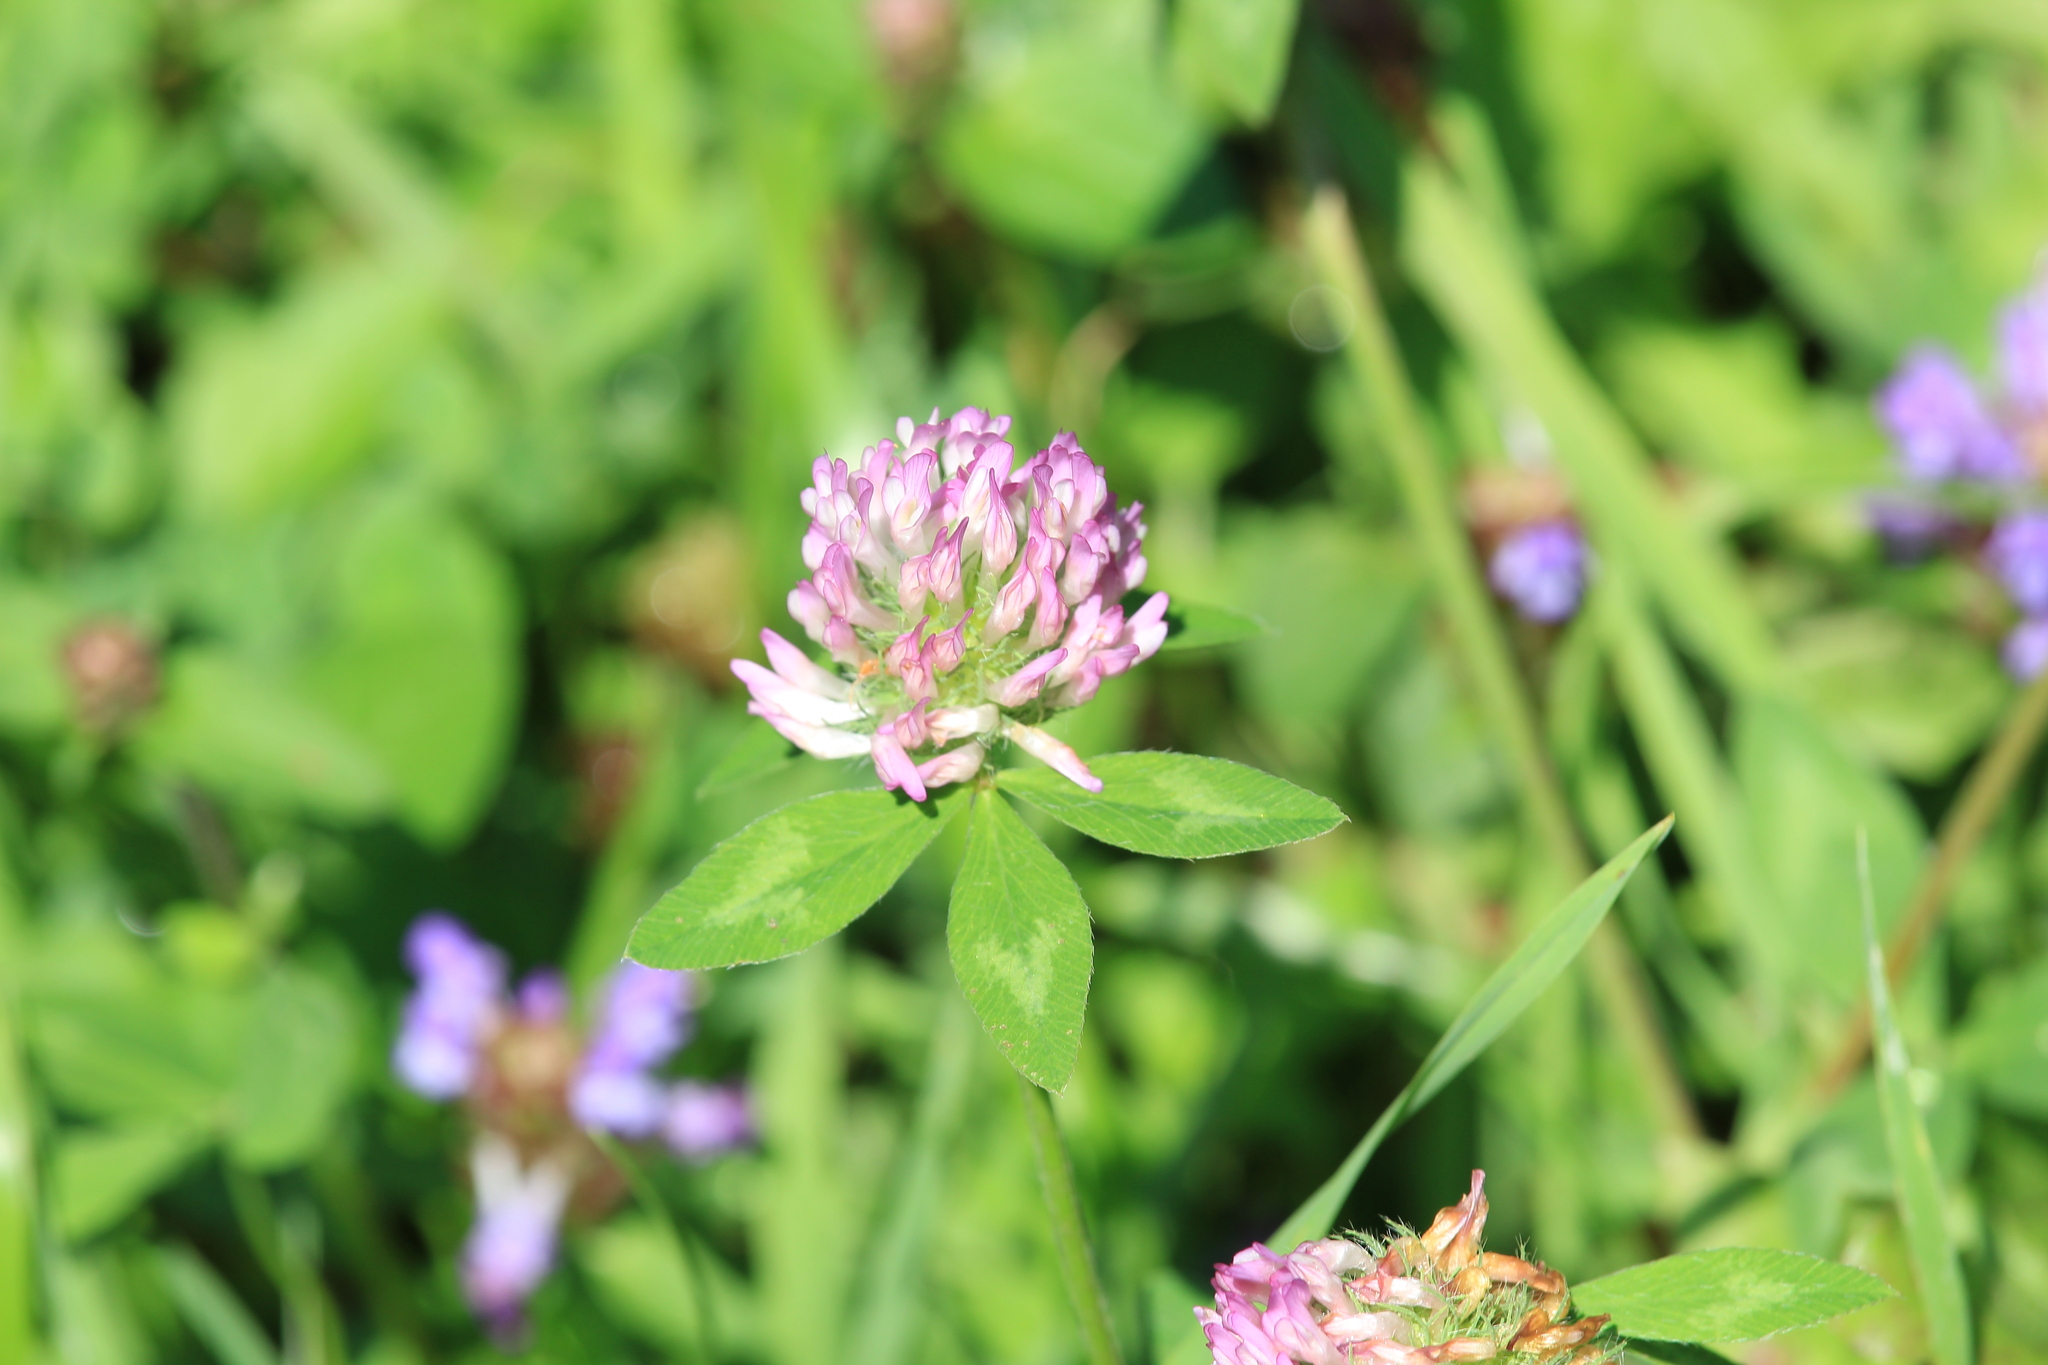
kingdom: Plantae
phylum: Tracheophyta
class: Magnoliopsida
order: Fabales
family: Fabaceae
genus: Trifolium
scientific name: Trifolium pratense
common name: Red clover
